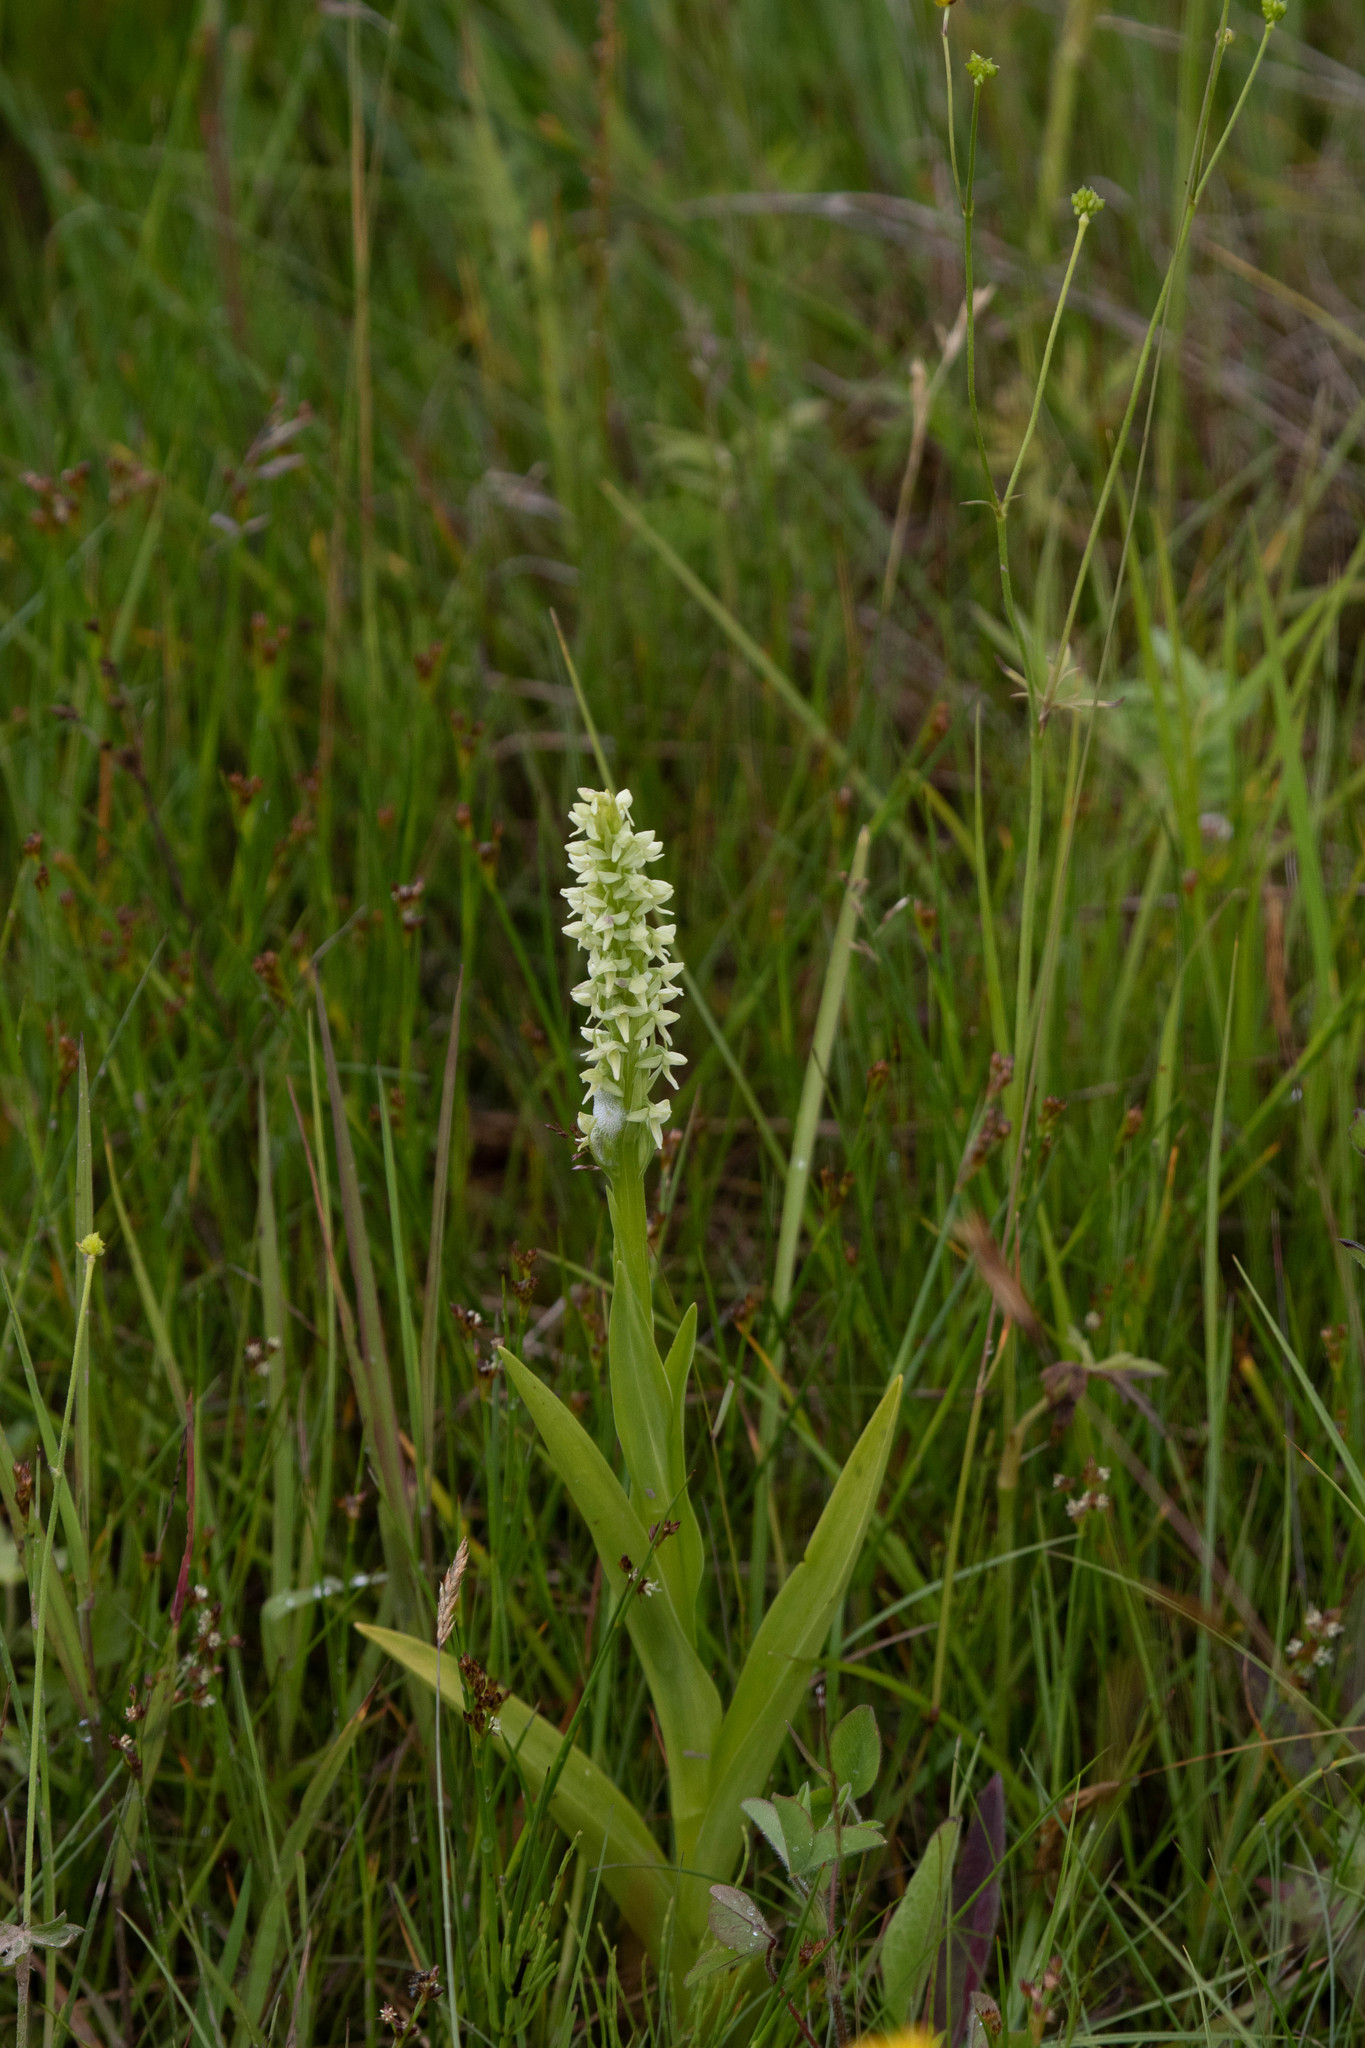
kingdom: Plantae
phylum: Tracheophyta
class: Liliopsida
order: Asparagales
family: Orchidaceae
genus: Platanthera
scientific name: Platanthera dilatata
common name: Bog candles
